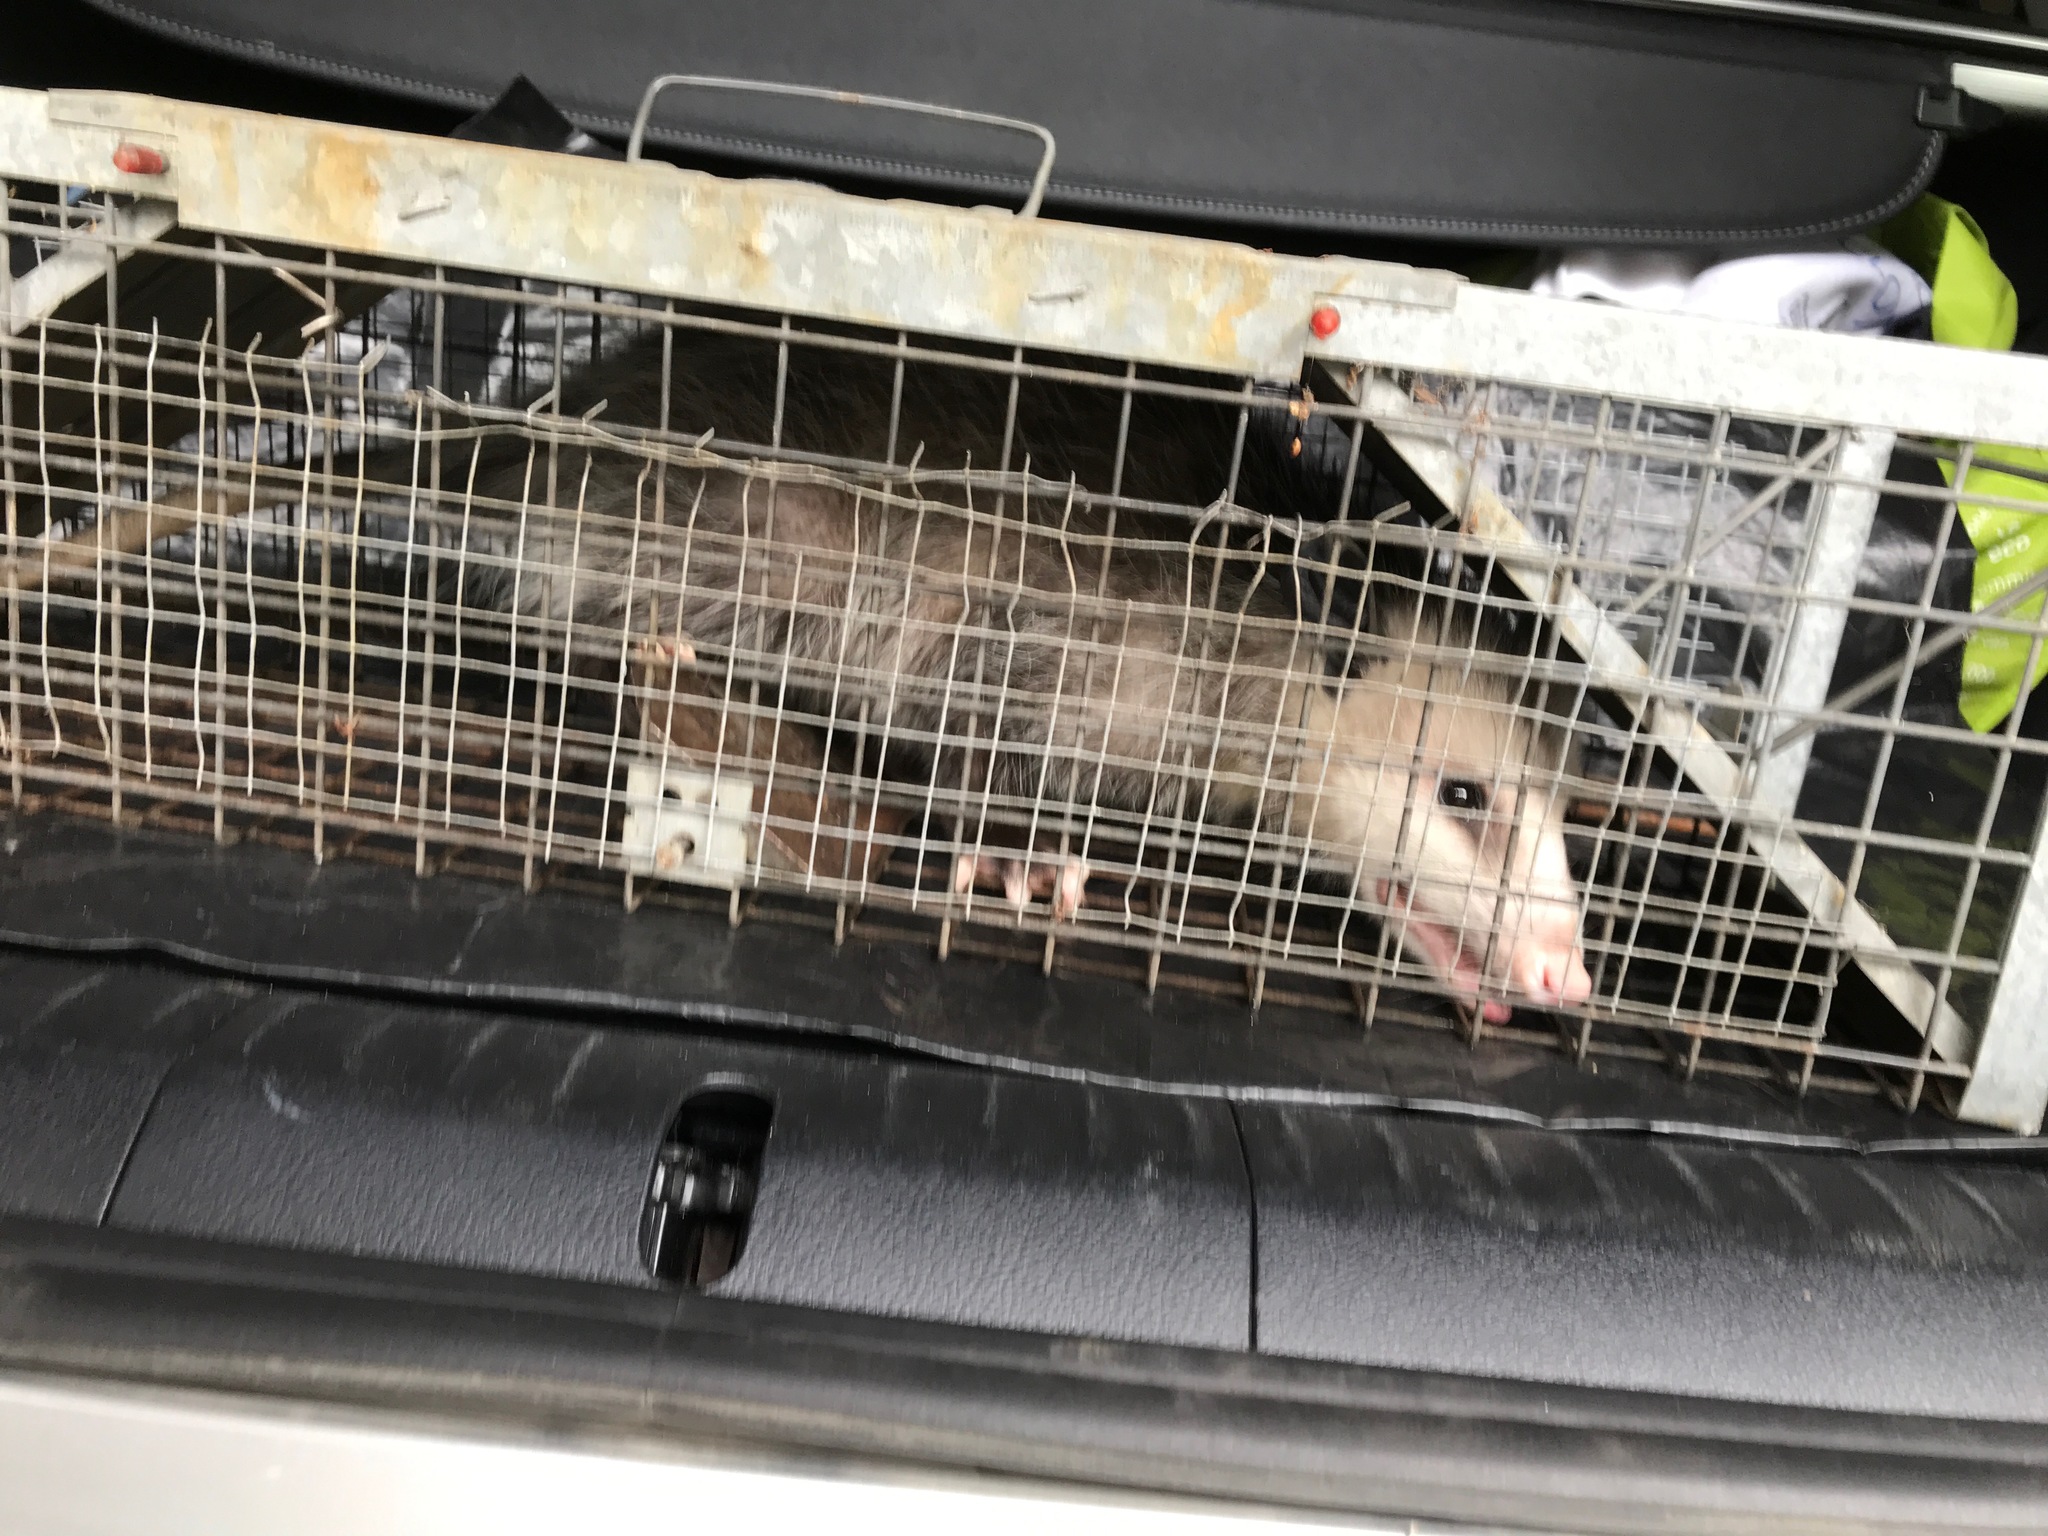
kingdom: Animalia
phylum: Chordata
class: Mammalia
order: Didelphimorphia
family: Didelphidae
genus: Didelphis
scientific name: Didelphis virginiana
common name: Virginia opossum
